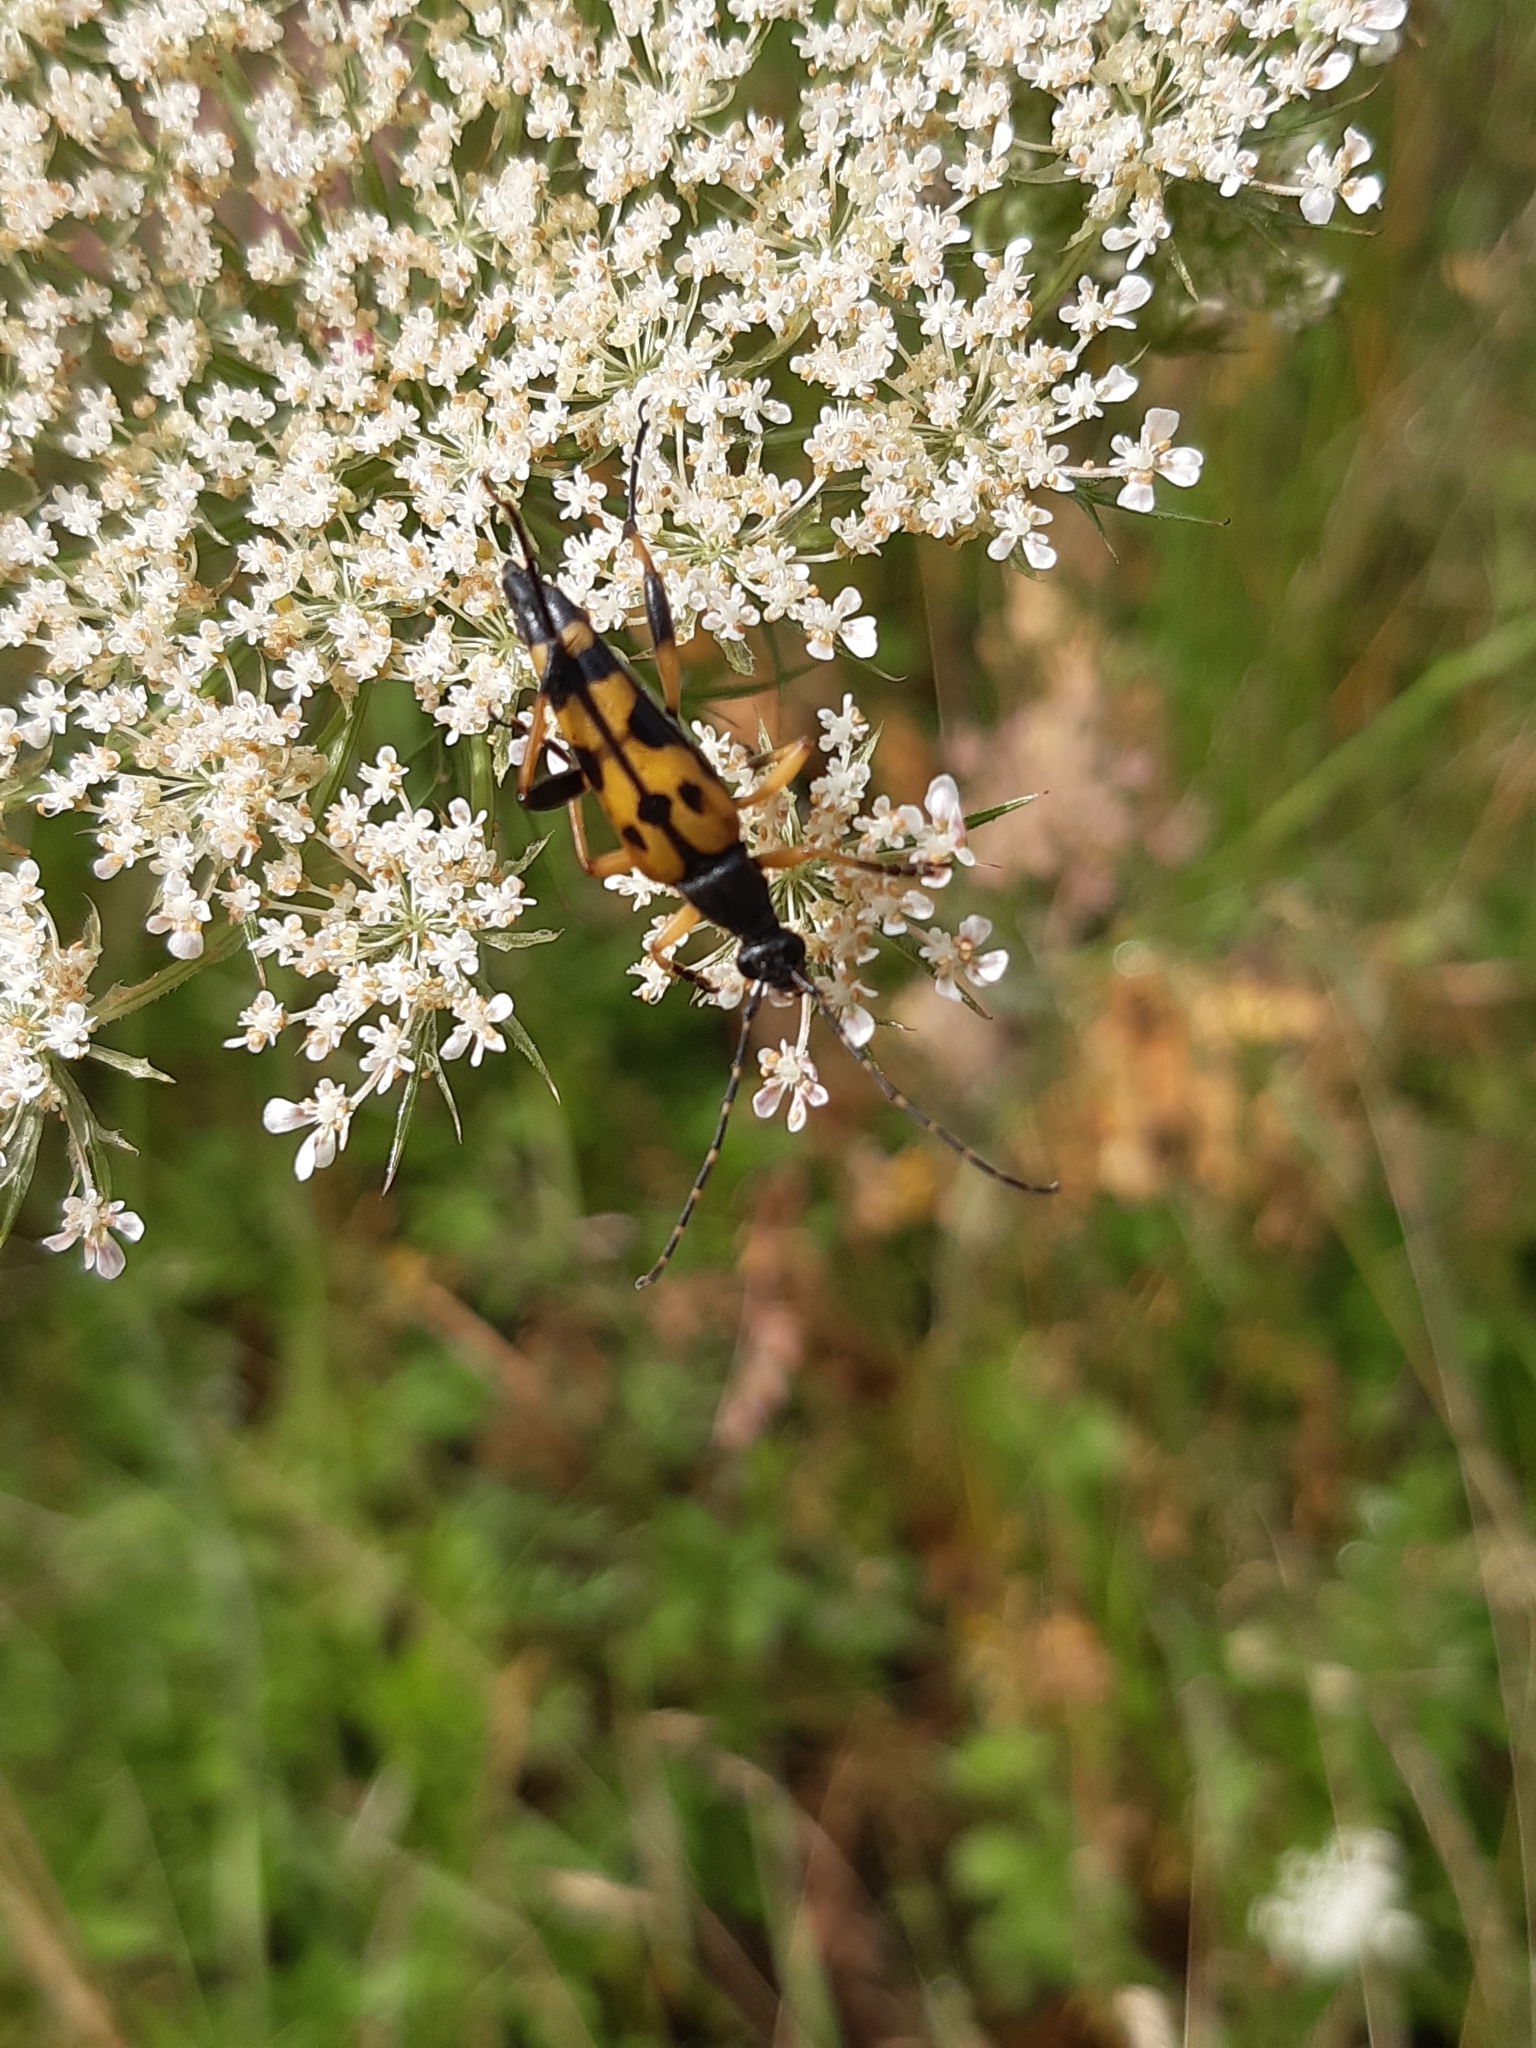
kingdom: Animalia
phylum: Arthropoda
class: Insecta
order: Coleoptera
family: Cerambycidae
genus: Rutpela
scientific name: Rutpela maculata
